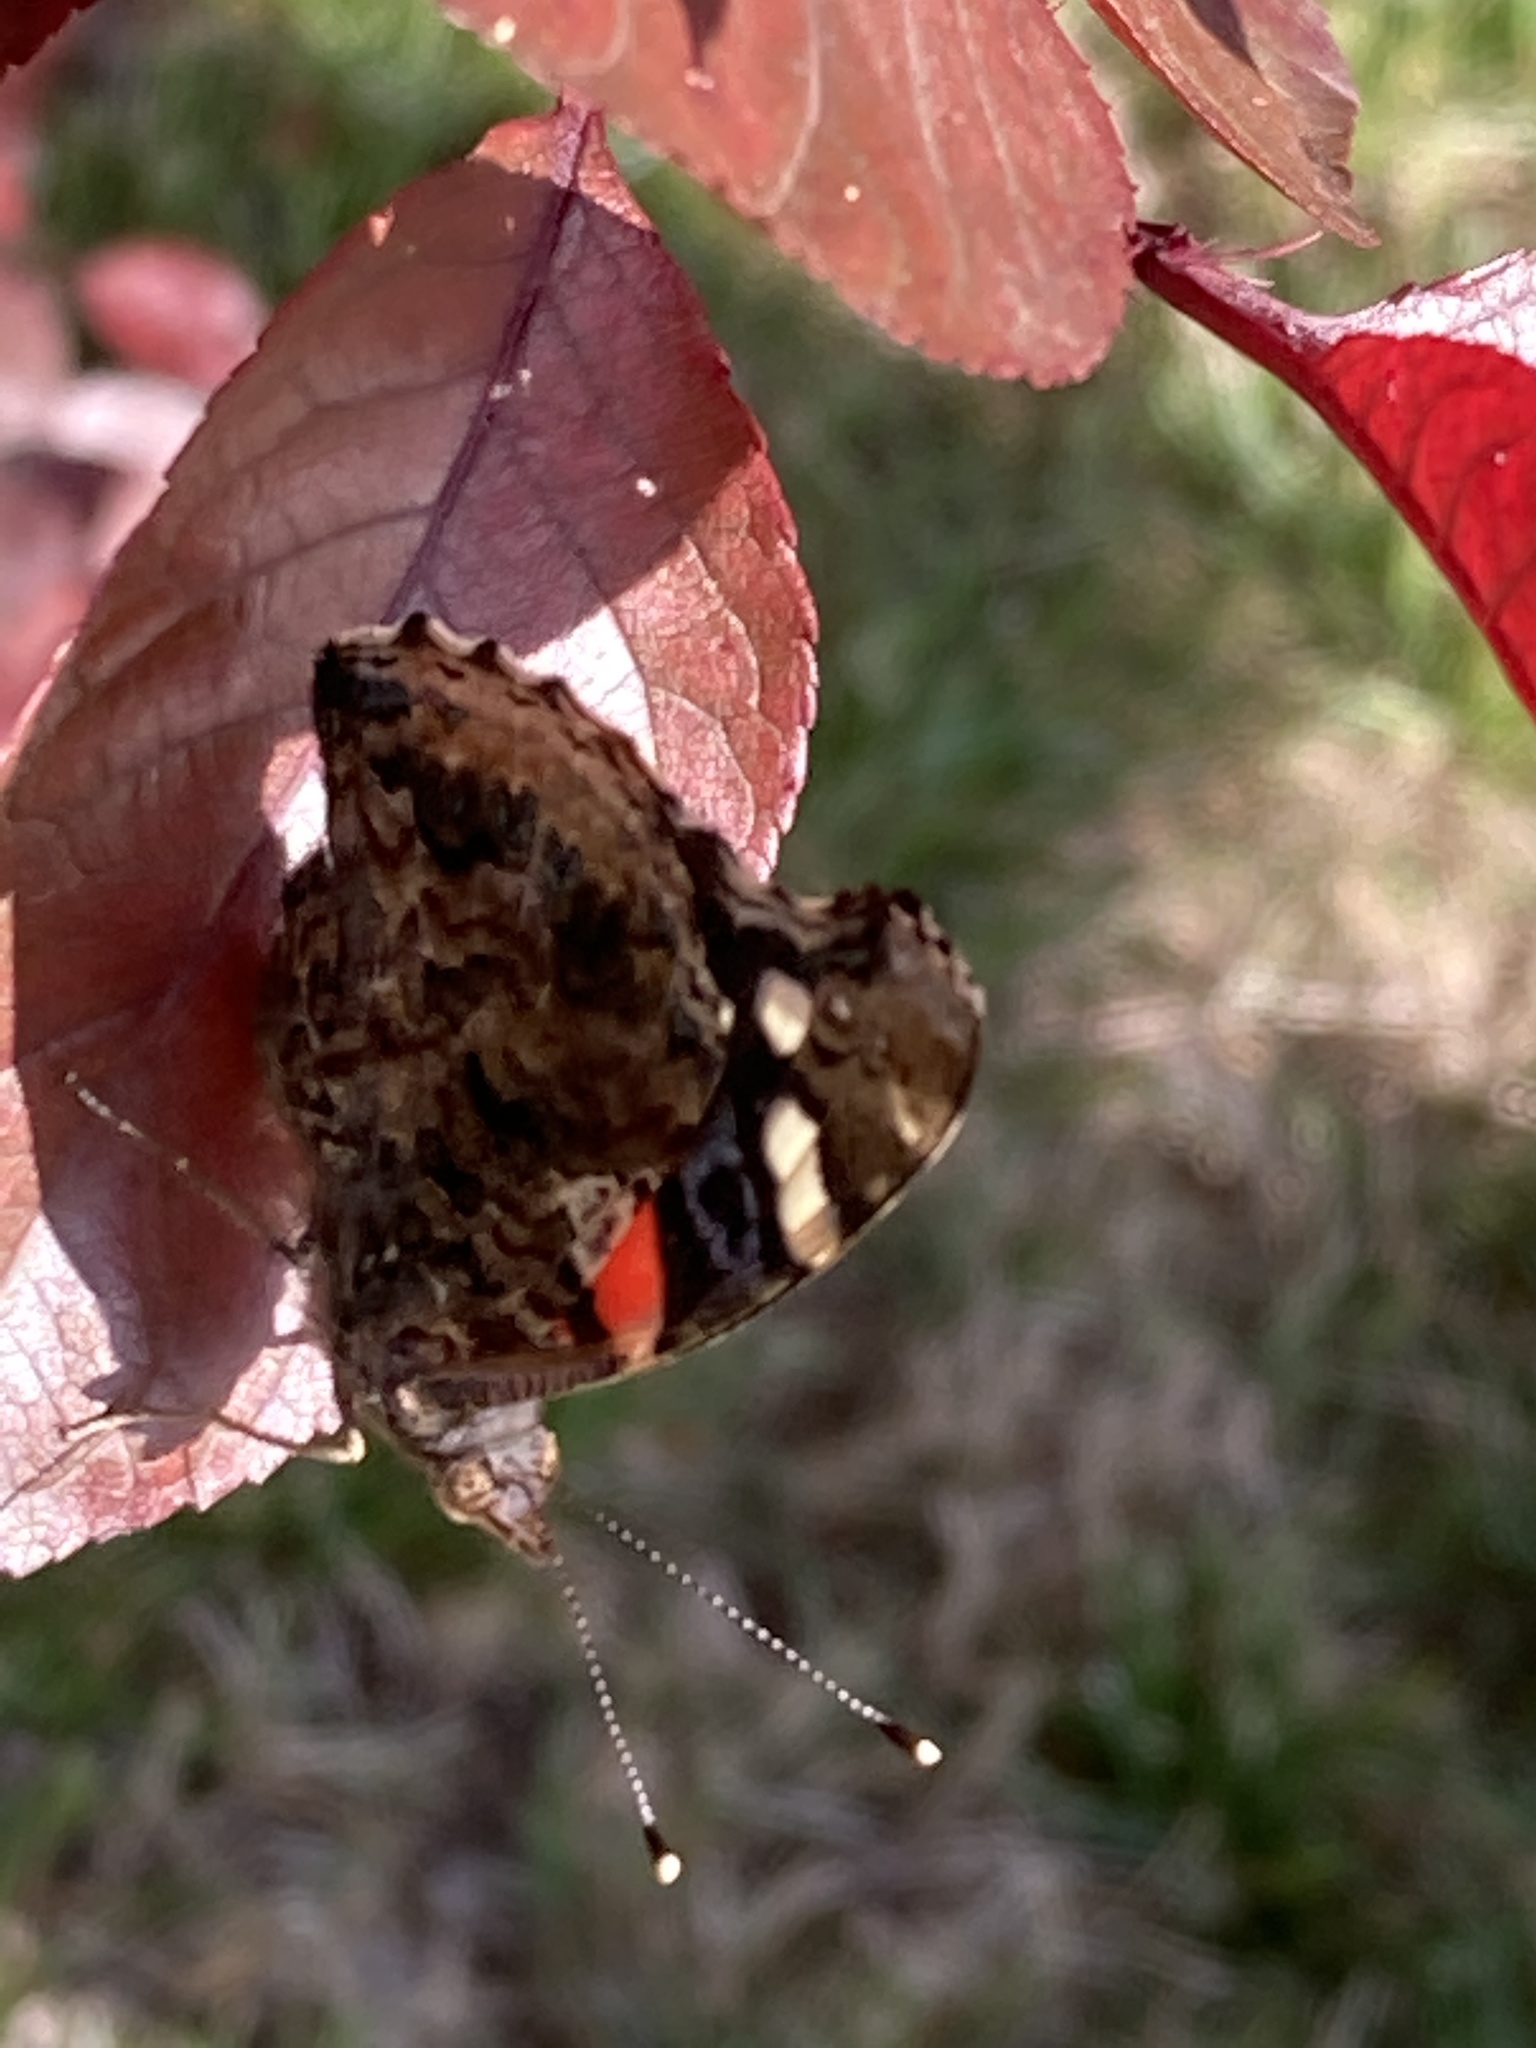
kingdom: Animalia
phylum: Arthropoda
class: Insecta
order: Lepidoptera
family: Nymphalidae
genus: Vanessa
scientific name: Vanessa atalanta
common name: Red admiral
